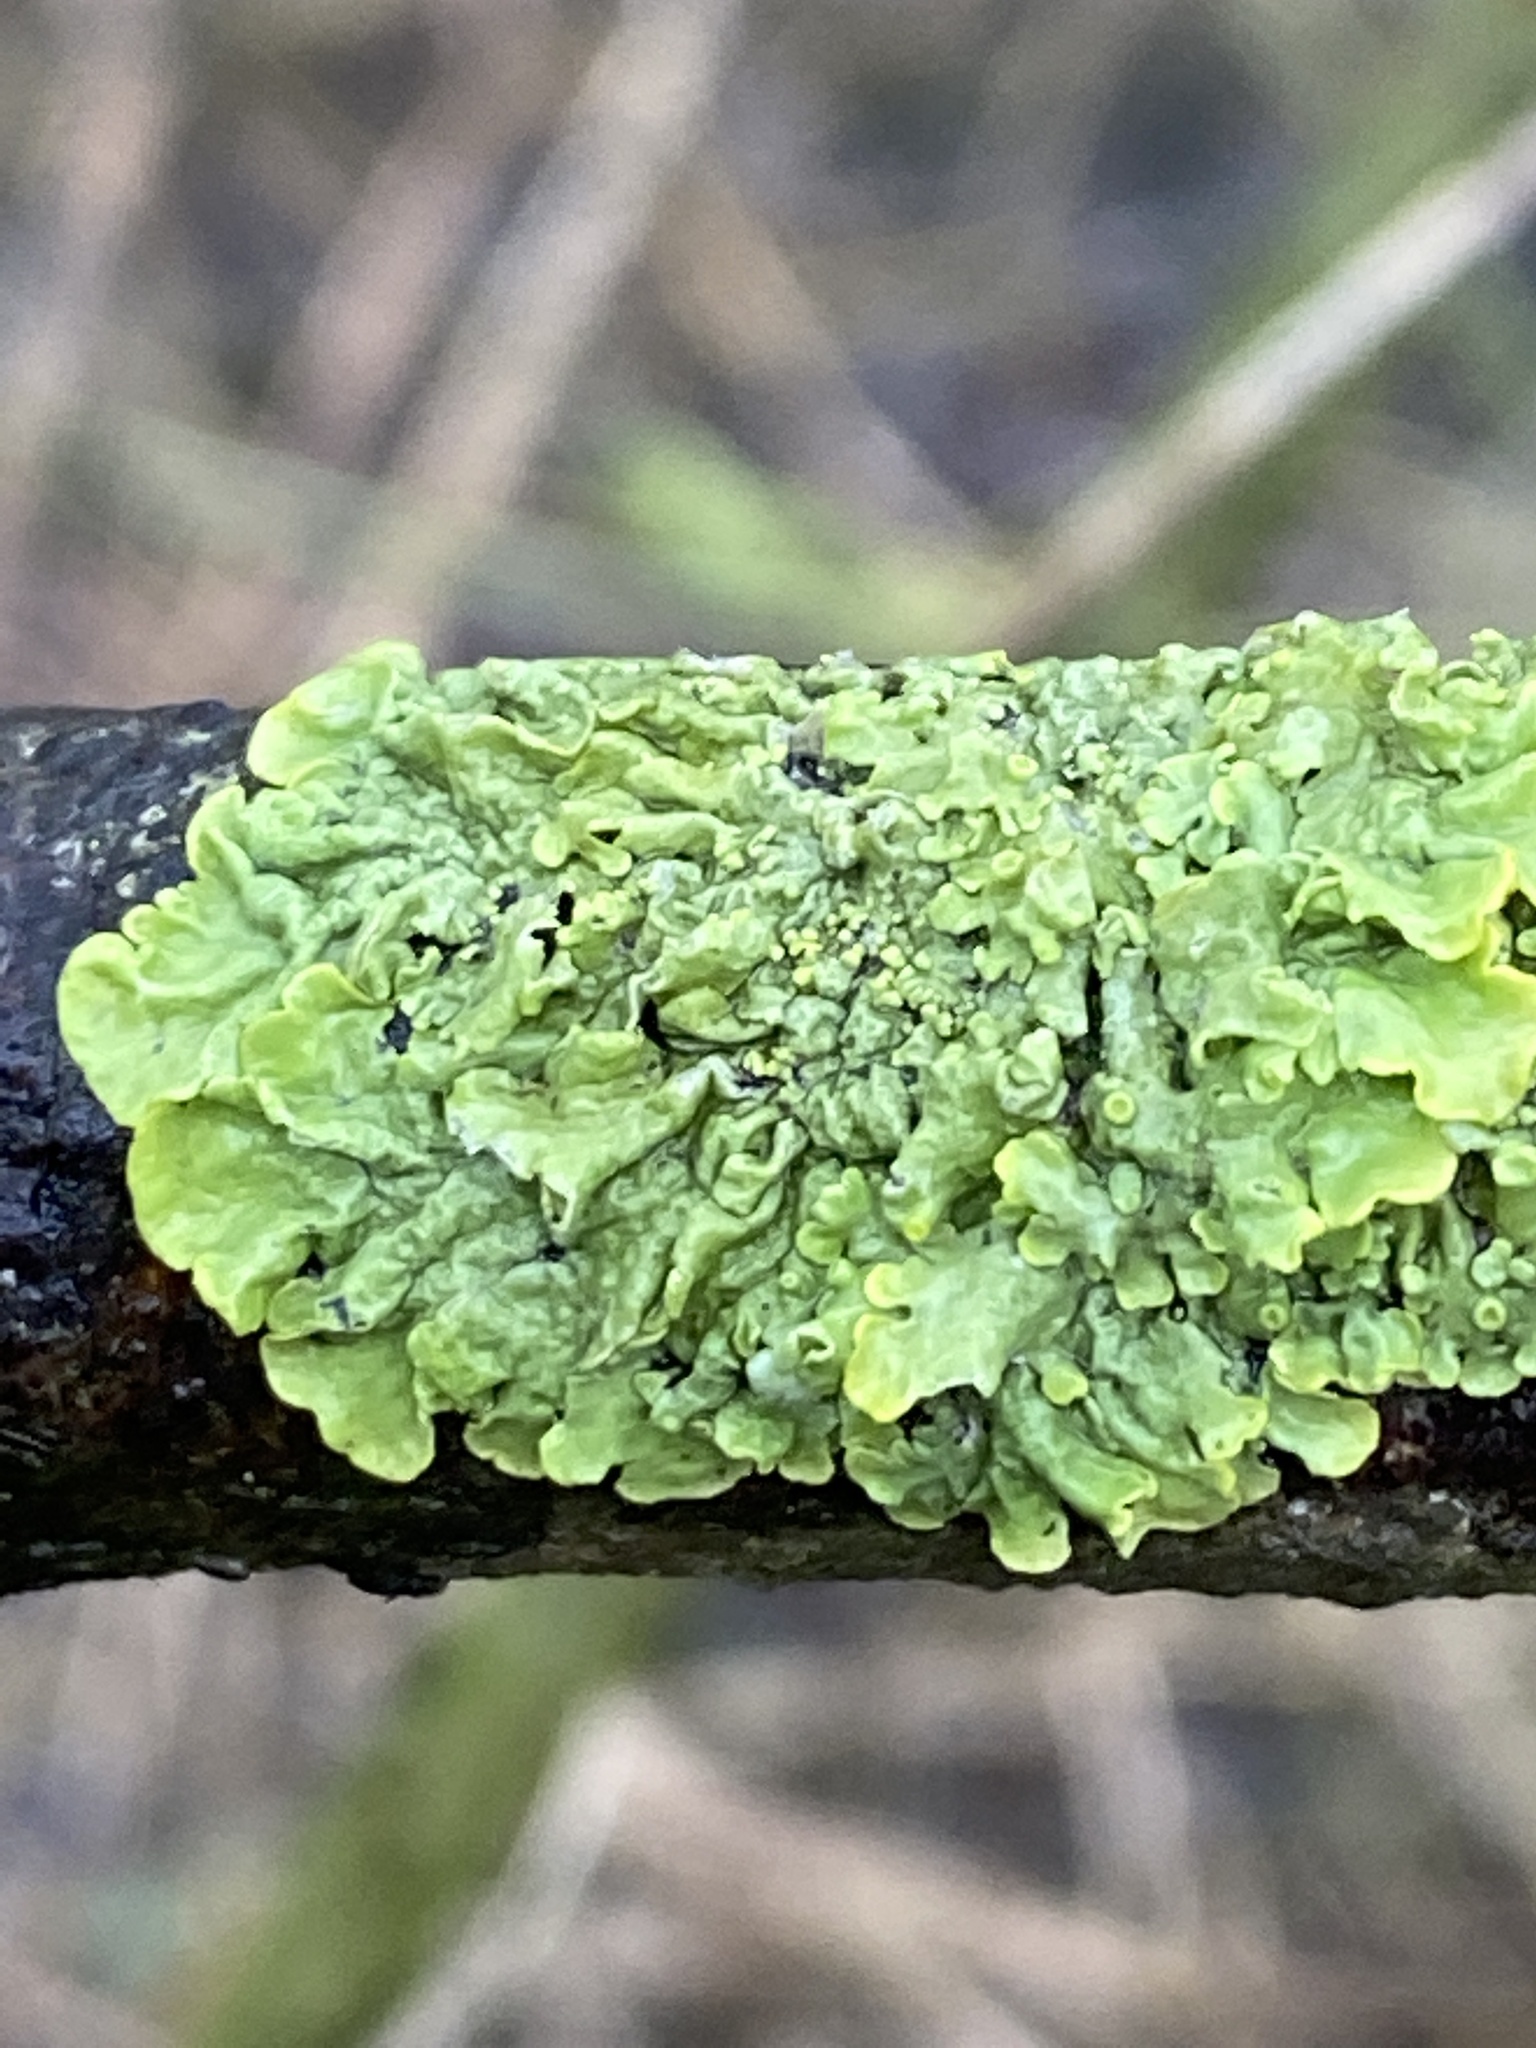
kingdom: Fungi
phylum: Ascomycota
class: Lecanoromycetes
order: Teloschistales
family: Teloschistaceae
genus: Xanthoria
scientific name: Xanthoria parietina
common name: Common orange lichen
